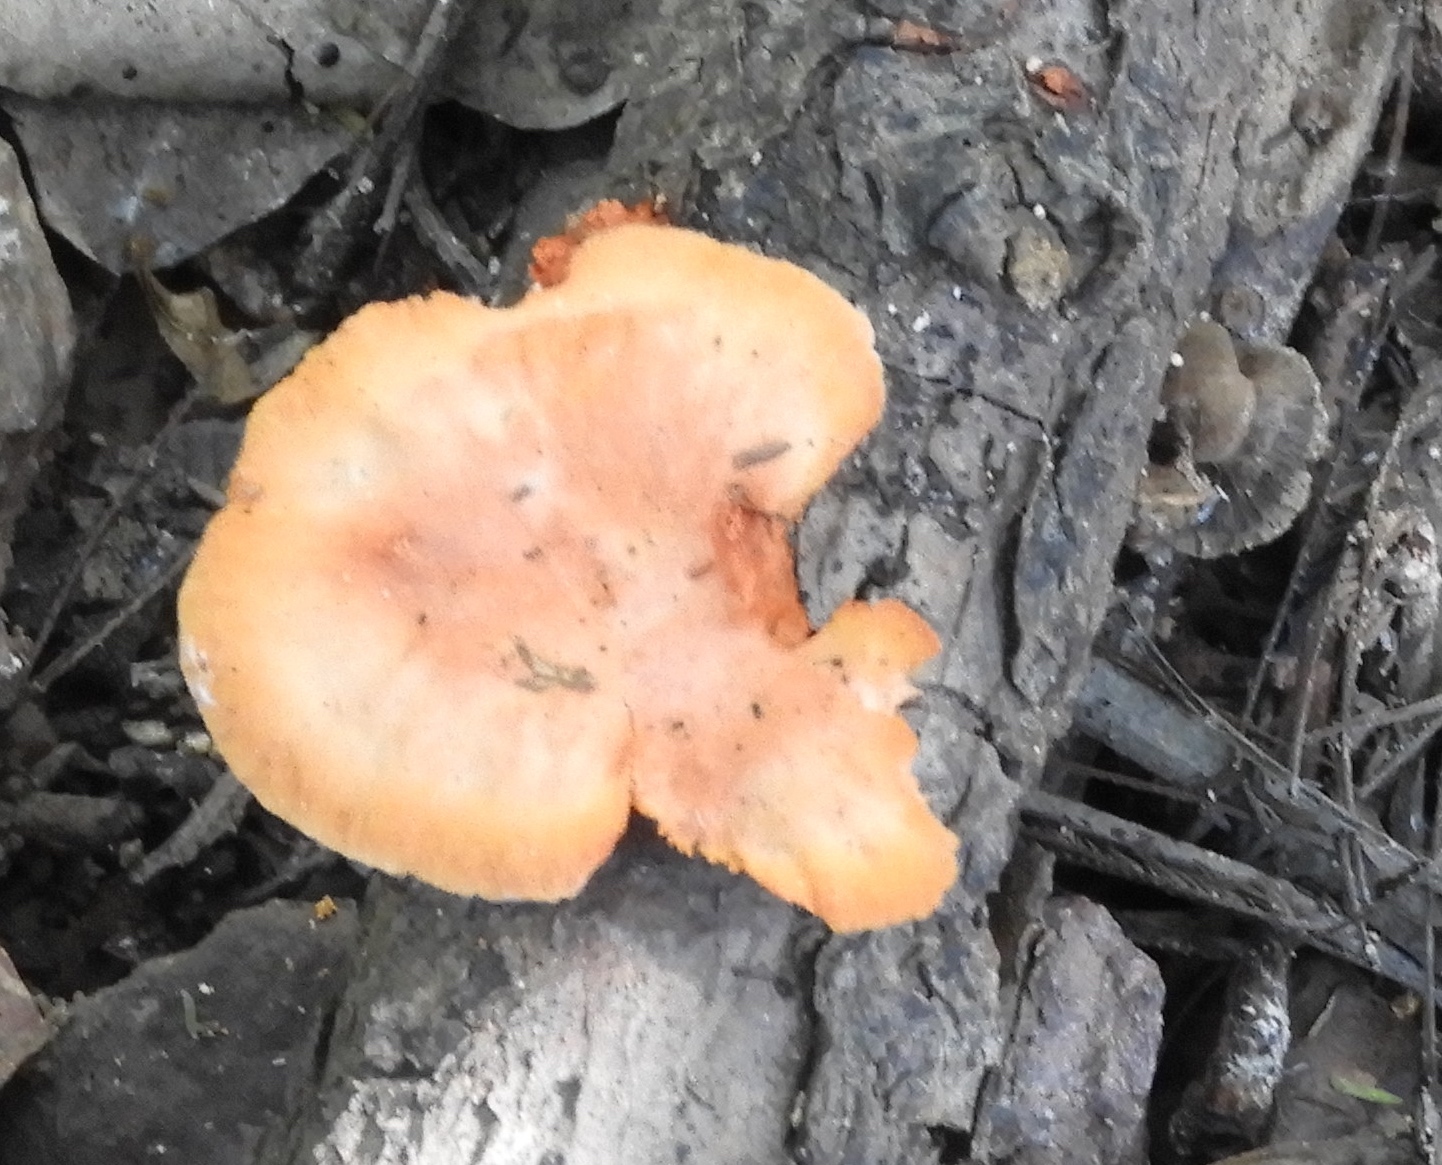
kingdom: Fungi
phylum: Basidiomycota
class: Agaricomycetes
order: Polyporales
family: Polyporaceae
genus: Trametes
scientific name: Trametes
